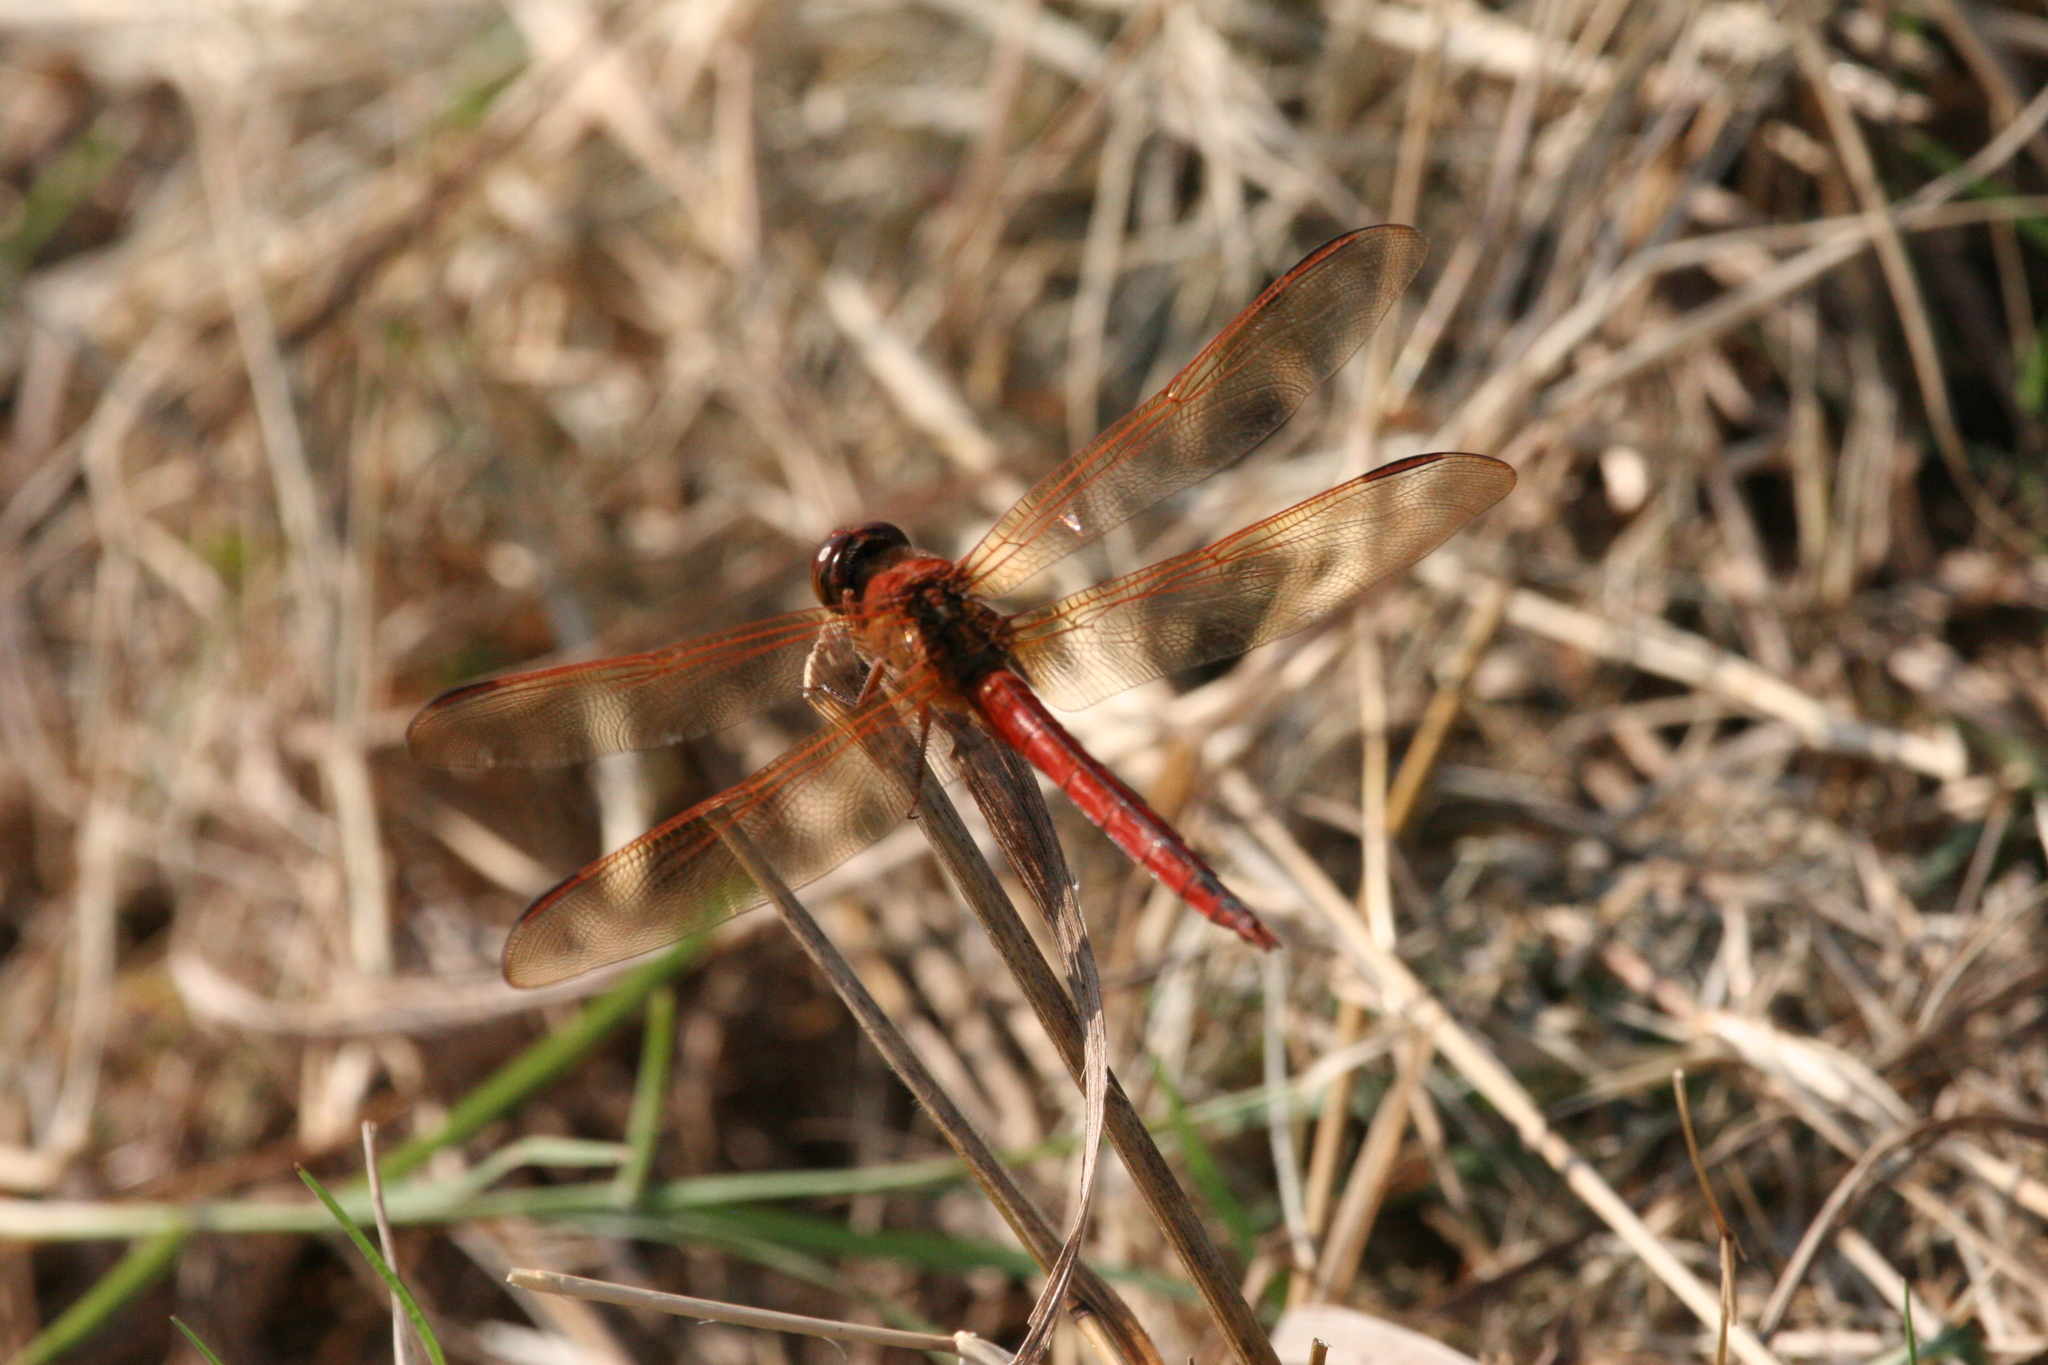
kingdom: Animalia
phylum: Arthropoda
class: Insecta
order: Odonata
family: Libellulidae
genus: Libellula
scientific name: Libellula needhami
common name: Needham's skimmer
